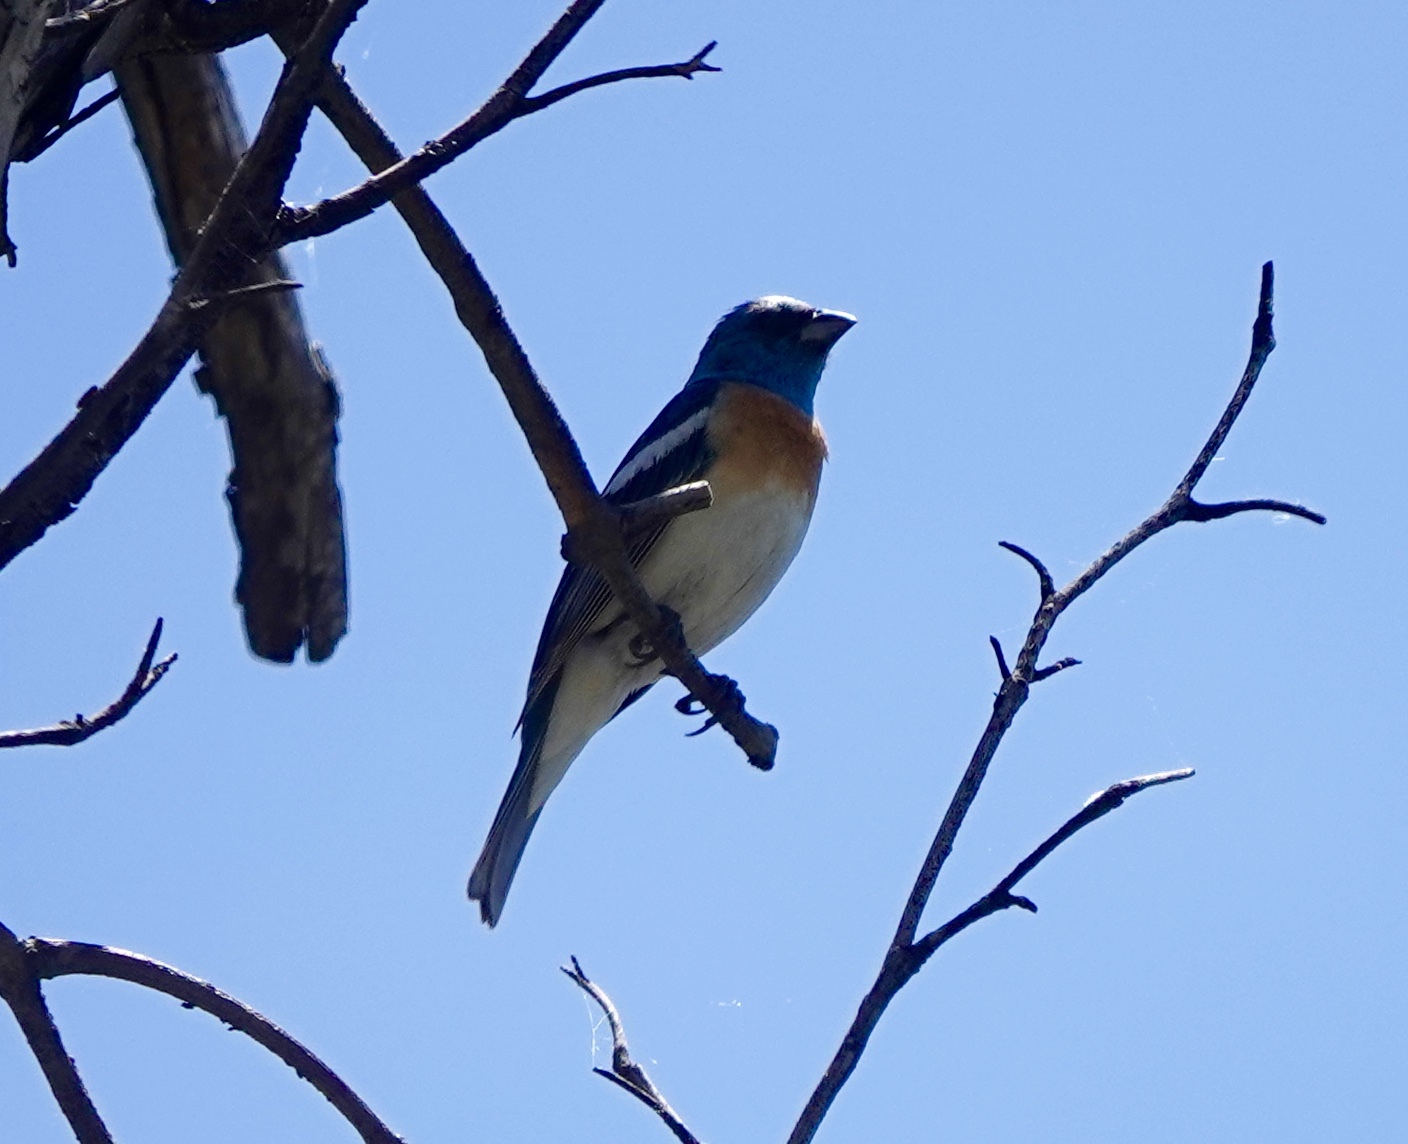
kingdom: Animalia
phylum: Chordata
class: Aves
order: Passeriformes
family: Cardinalidae
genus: Passerina
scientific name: Passerina amoena
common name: Lazuli bunting
